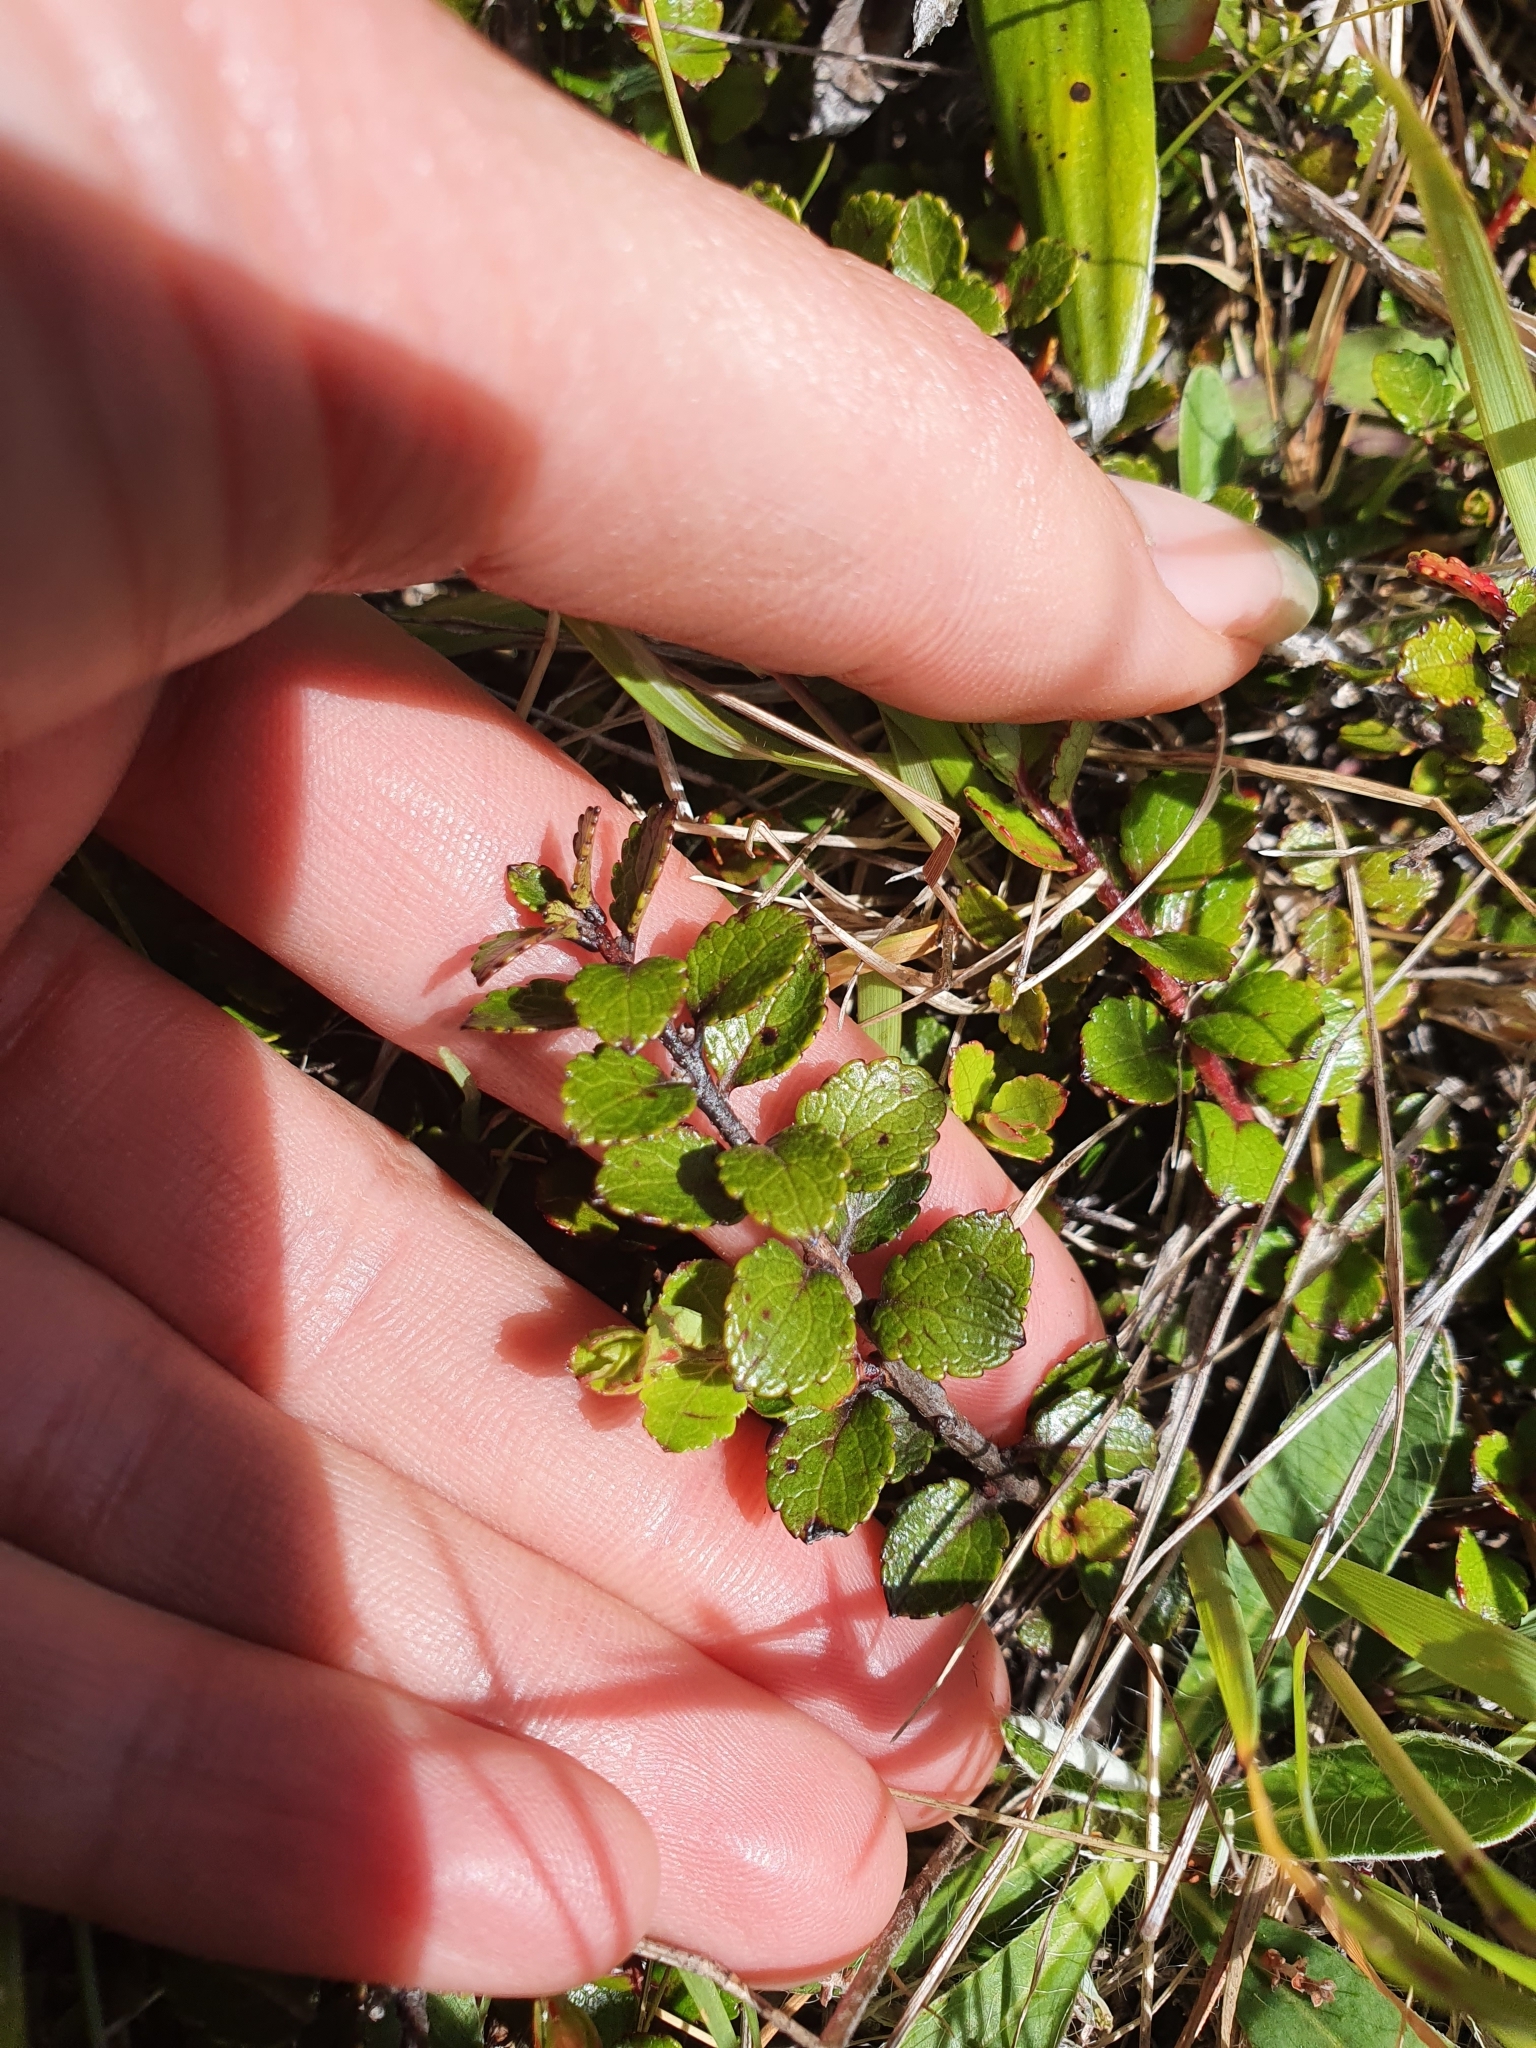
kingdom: Plantae
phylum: Tracheophyta
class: Magnoliopsida
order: Ericales
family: Ericaceae
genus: Gaultheria
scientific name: Gaultheria depressa
